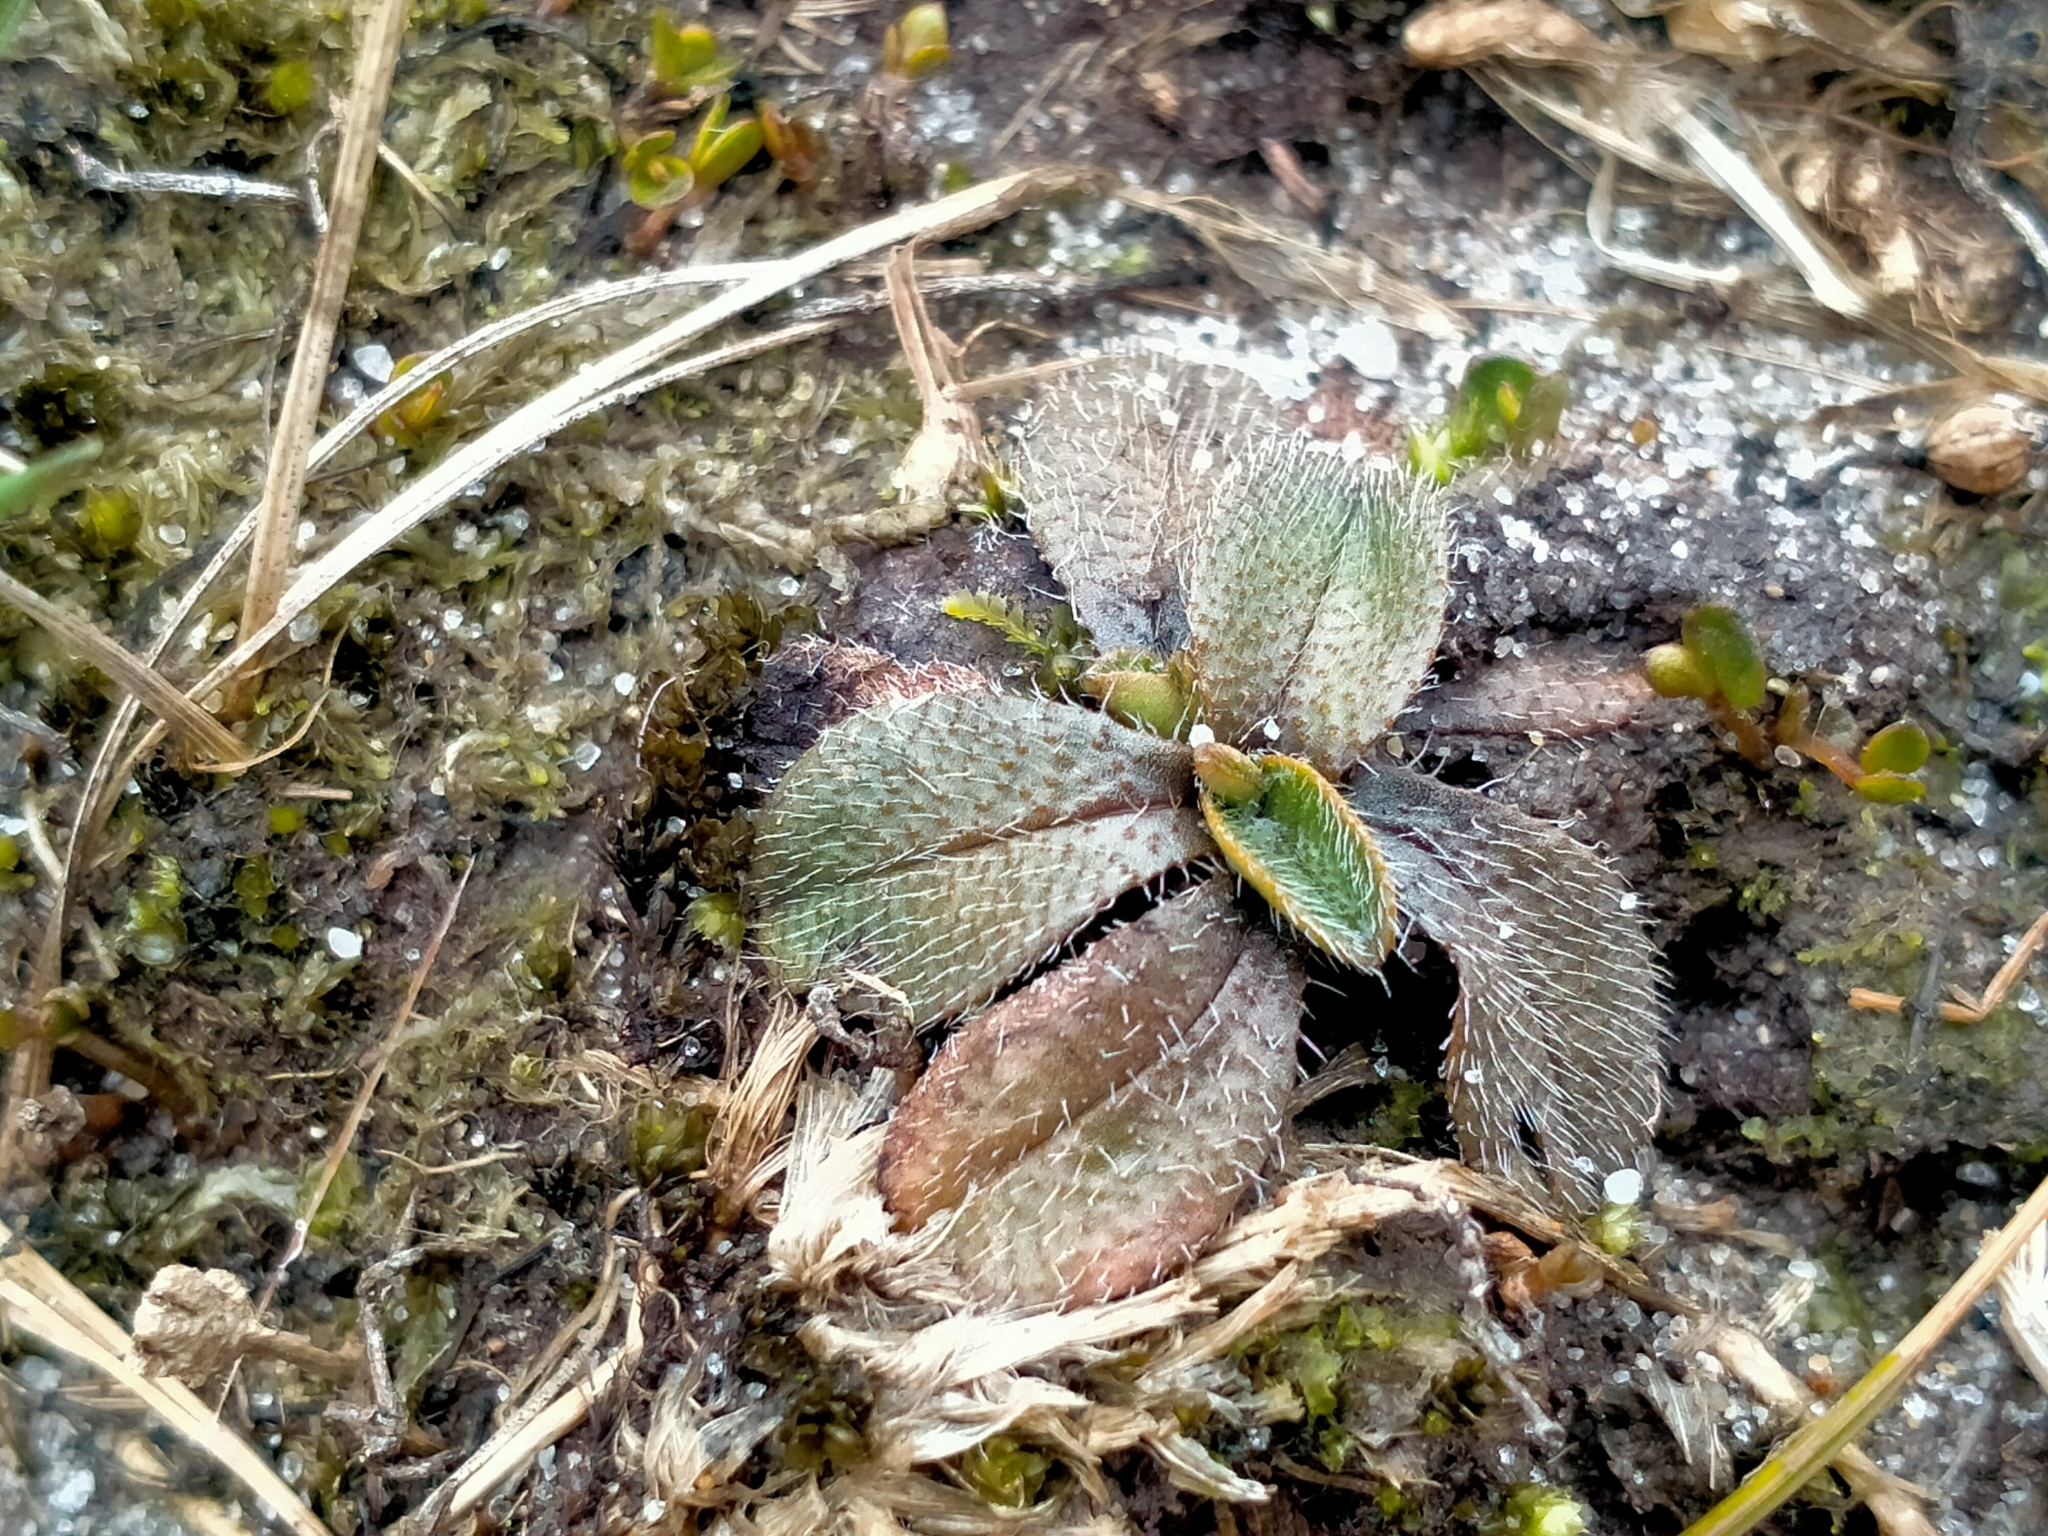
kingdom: Plantae
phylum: Tracheophyta
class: Magnoliopsida
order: Boraginales
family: Boraginaceae
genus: Myosotis
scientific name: Myosotis antarctica
